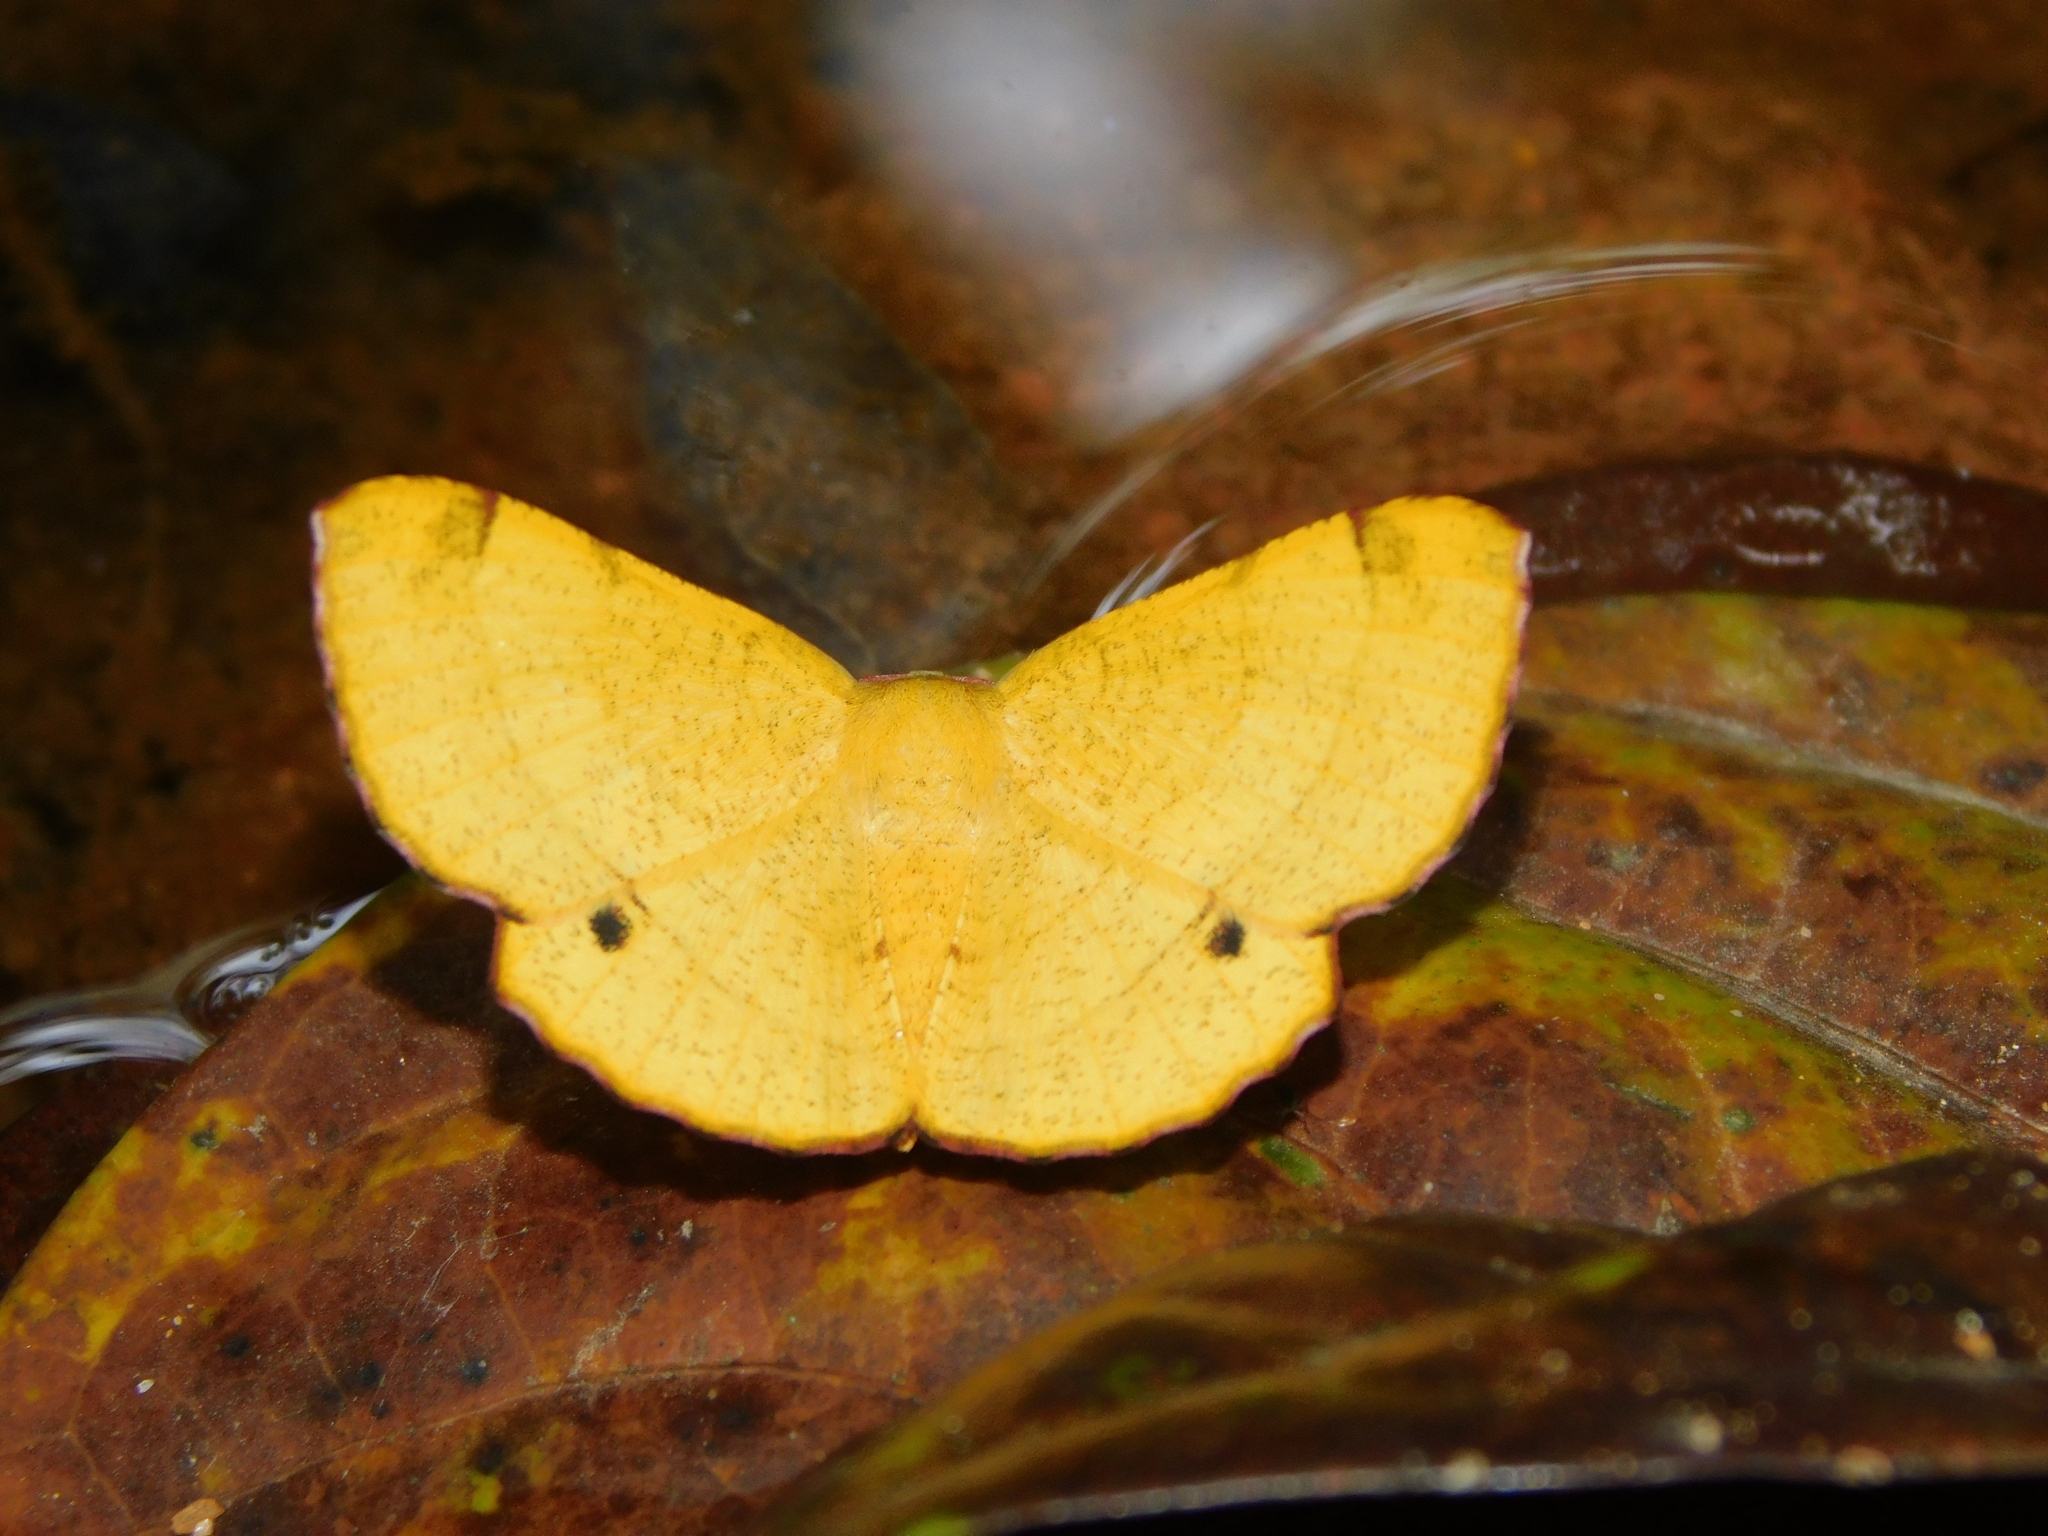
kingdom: Animalia
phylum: Arthropoda
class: Insecta
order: Lepidoptera
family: Geometridae
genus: Hyperythra
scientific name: Hyperythra lutea
